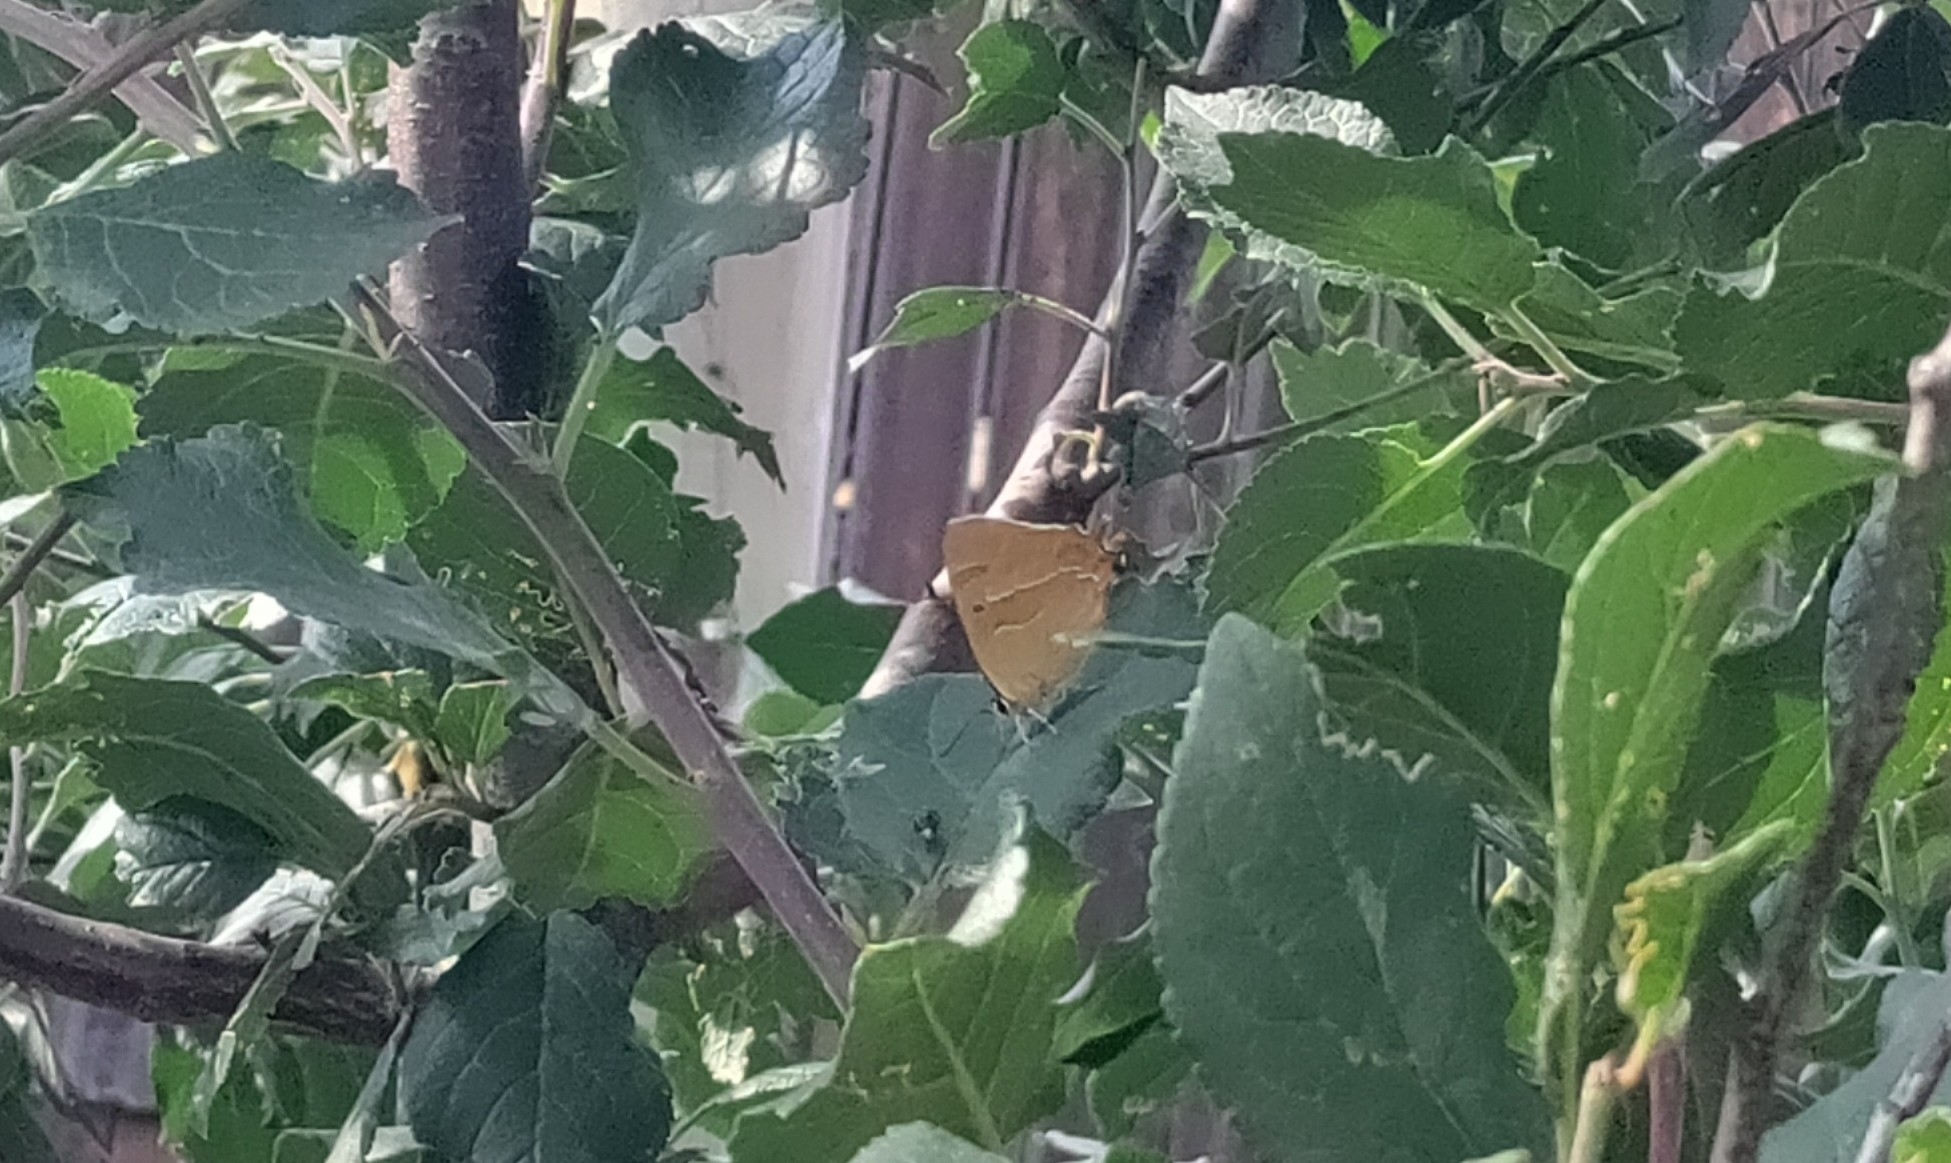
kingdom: Animalia
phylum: Arthropoda
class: Insecta
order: Lepidoptera
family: Lycaenidae
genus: Thecla
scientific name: Thecla betulae
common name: Brown hairstreak
